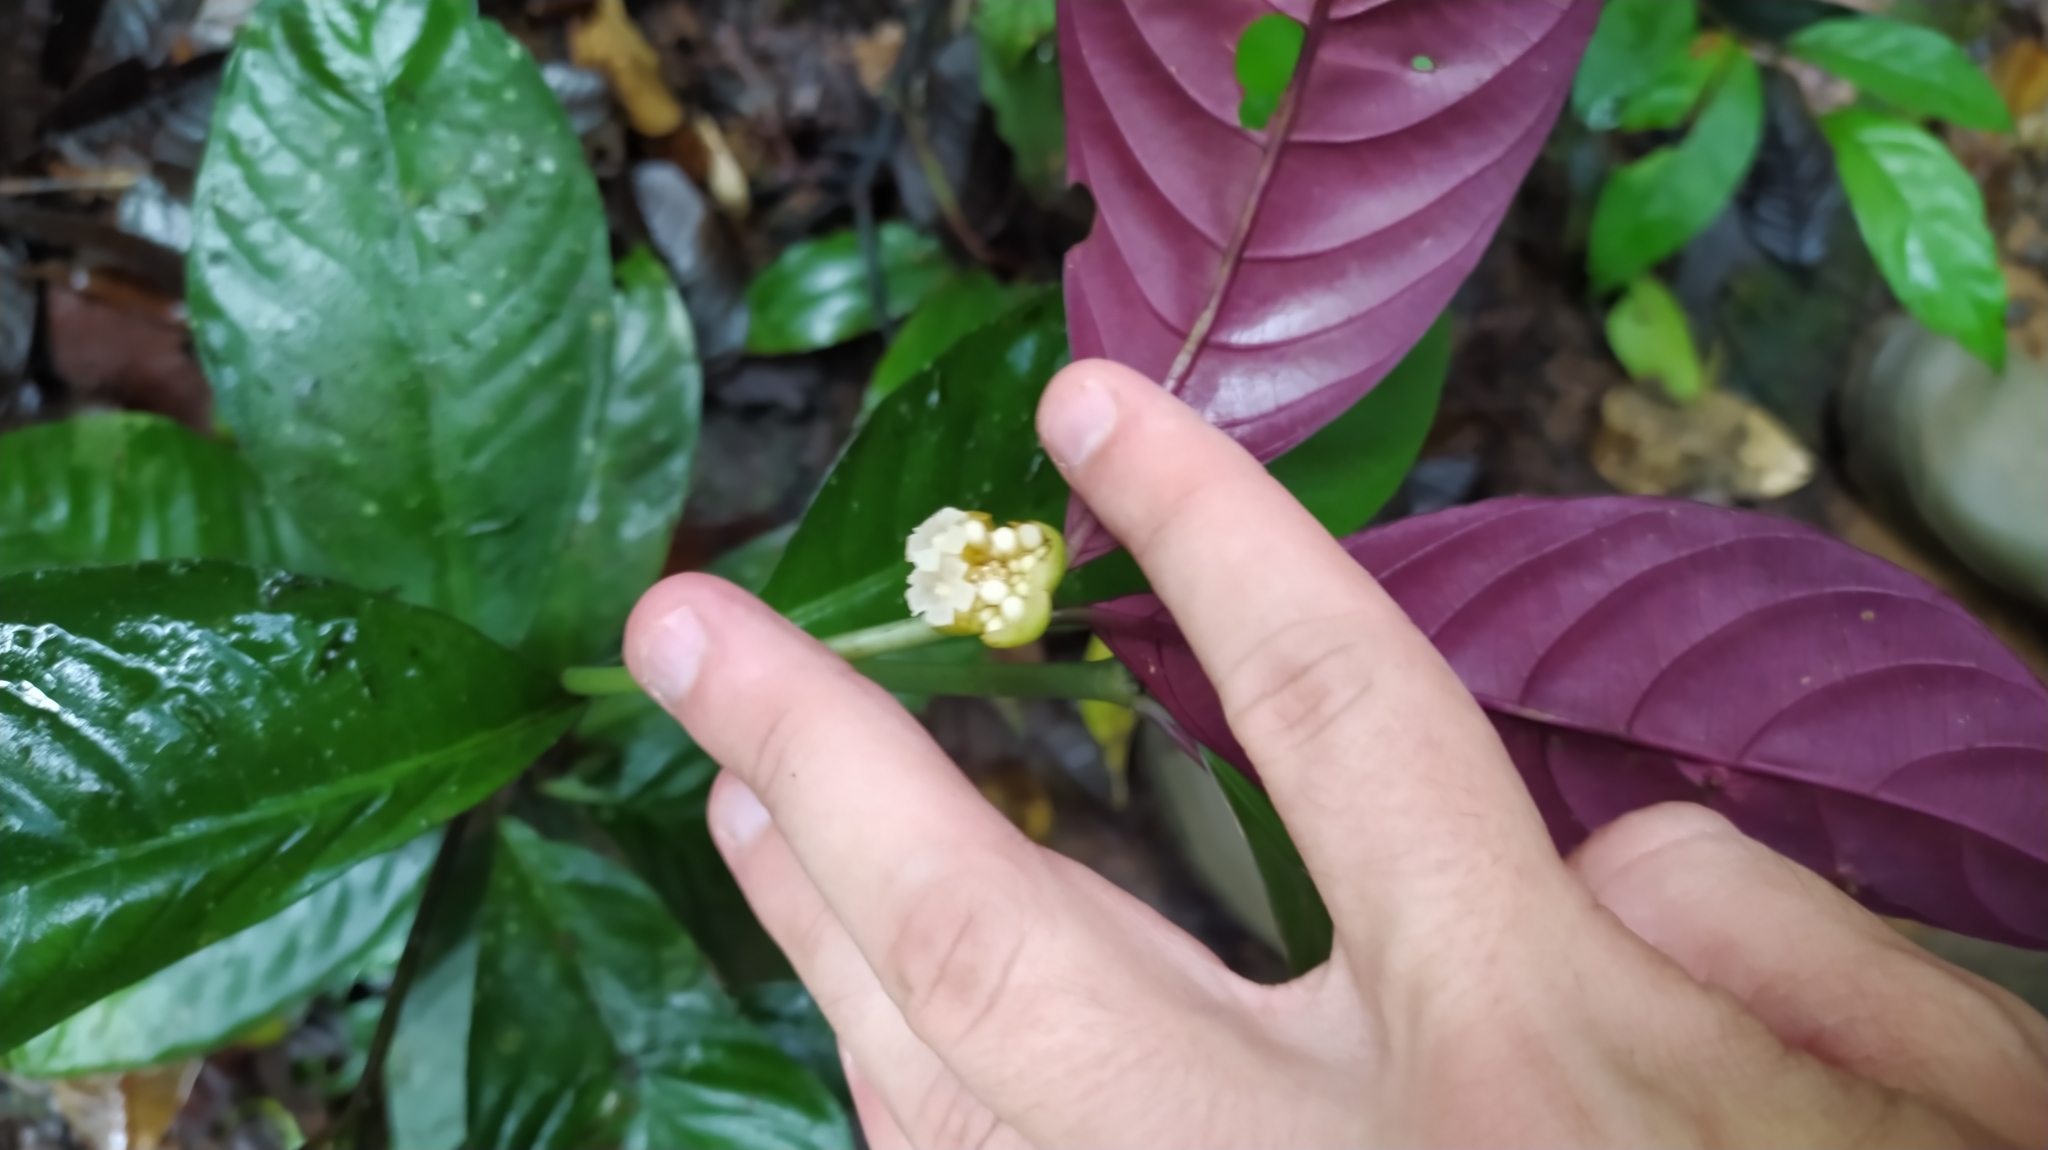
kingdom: Plantae
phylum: Tracheophyta
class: Magnoliopsida
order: Gentianales
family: Rubiaceae
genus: Palicourea
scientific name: Palicourea dichotoma
